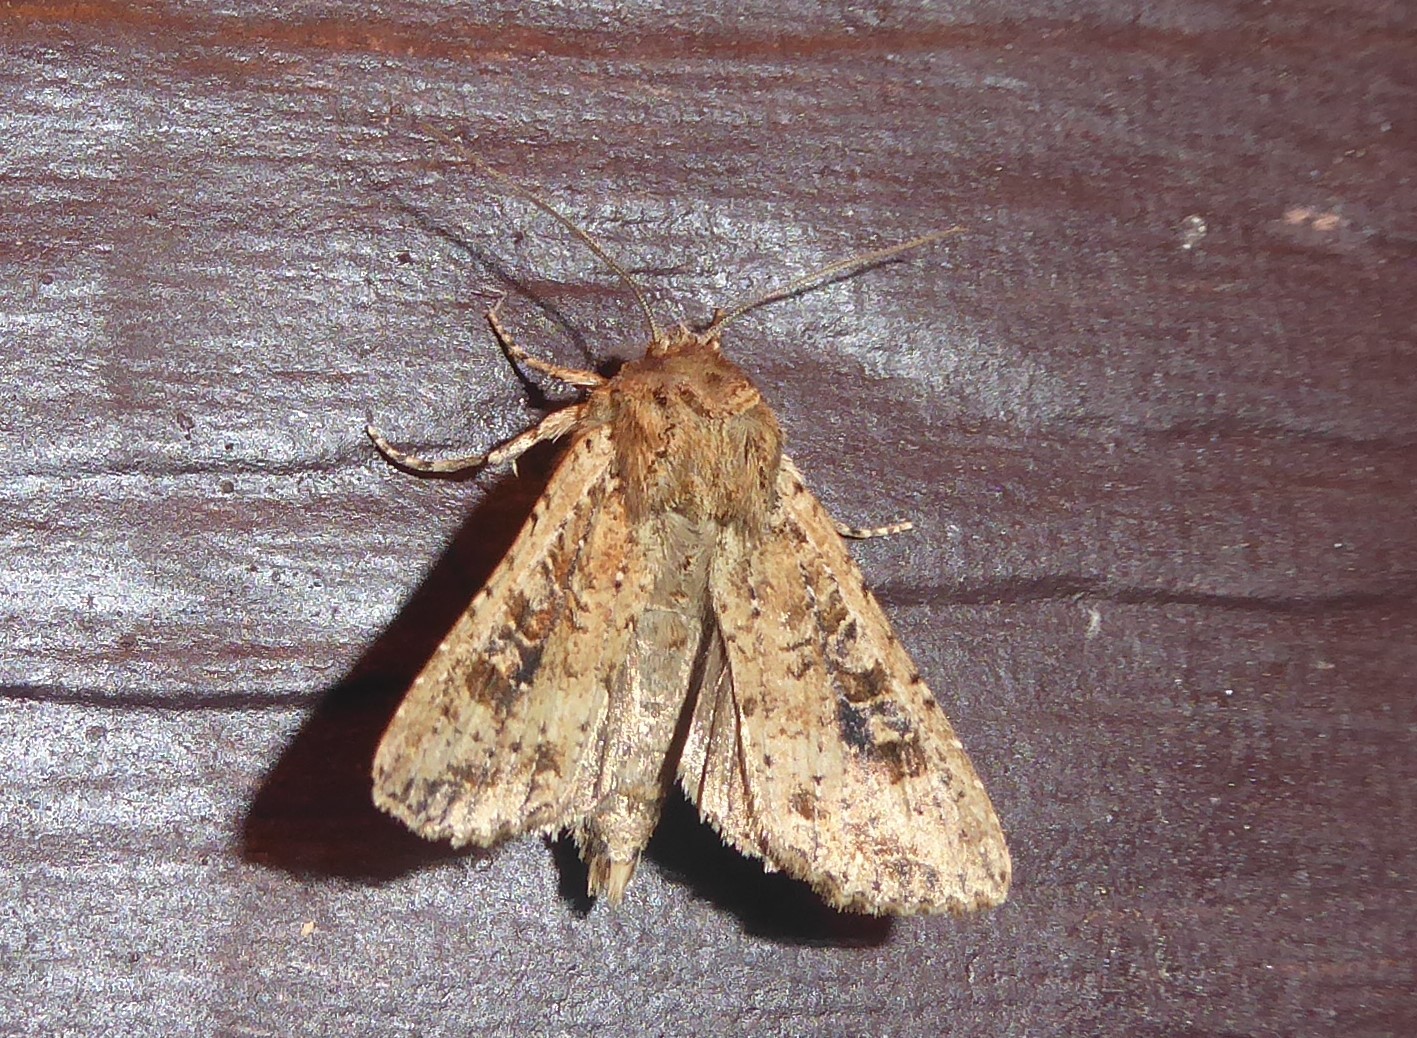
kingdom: Animalia
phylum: Arthropoda
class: Insecta
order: Lepidoptera
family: Noctuidae
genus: Ichneutica
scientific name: Ichneutica morosa
